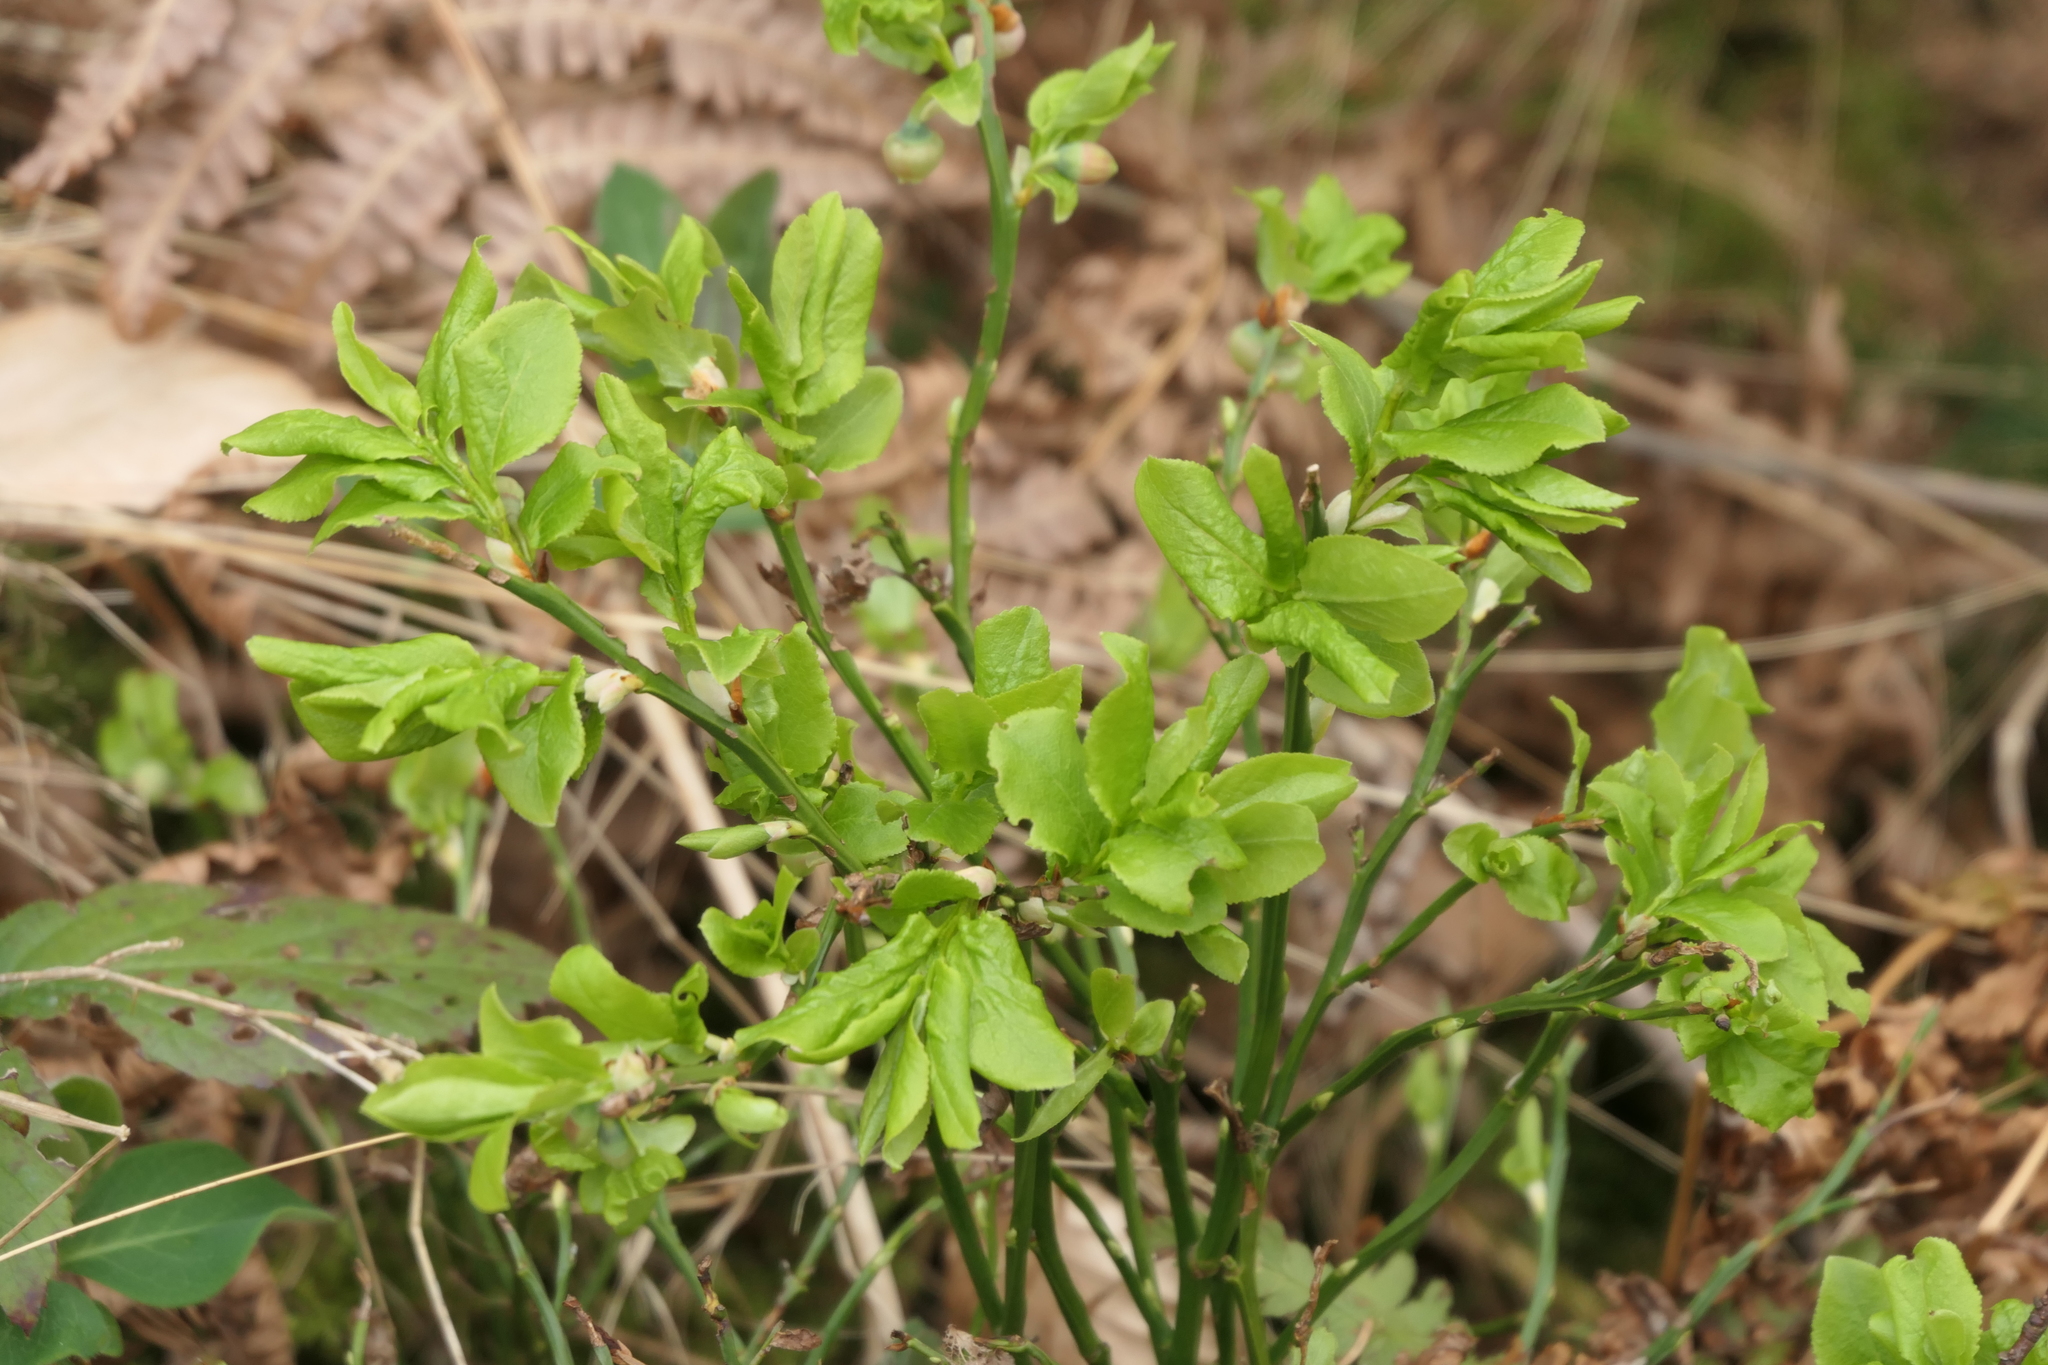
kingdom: Plantae
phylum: Tracheophyta
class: Magnoliopsida
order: Ericales
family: Ericaceae
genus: Vaccinium
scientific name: Vaccinium myrtillus
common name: Bilberry
